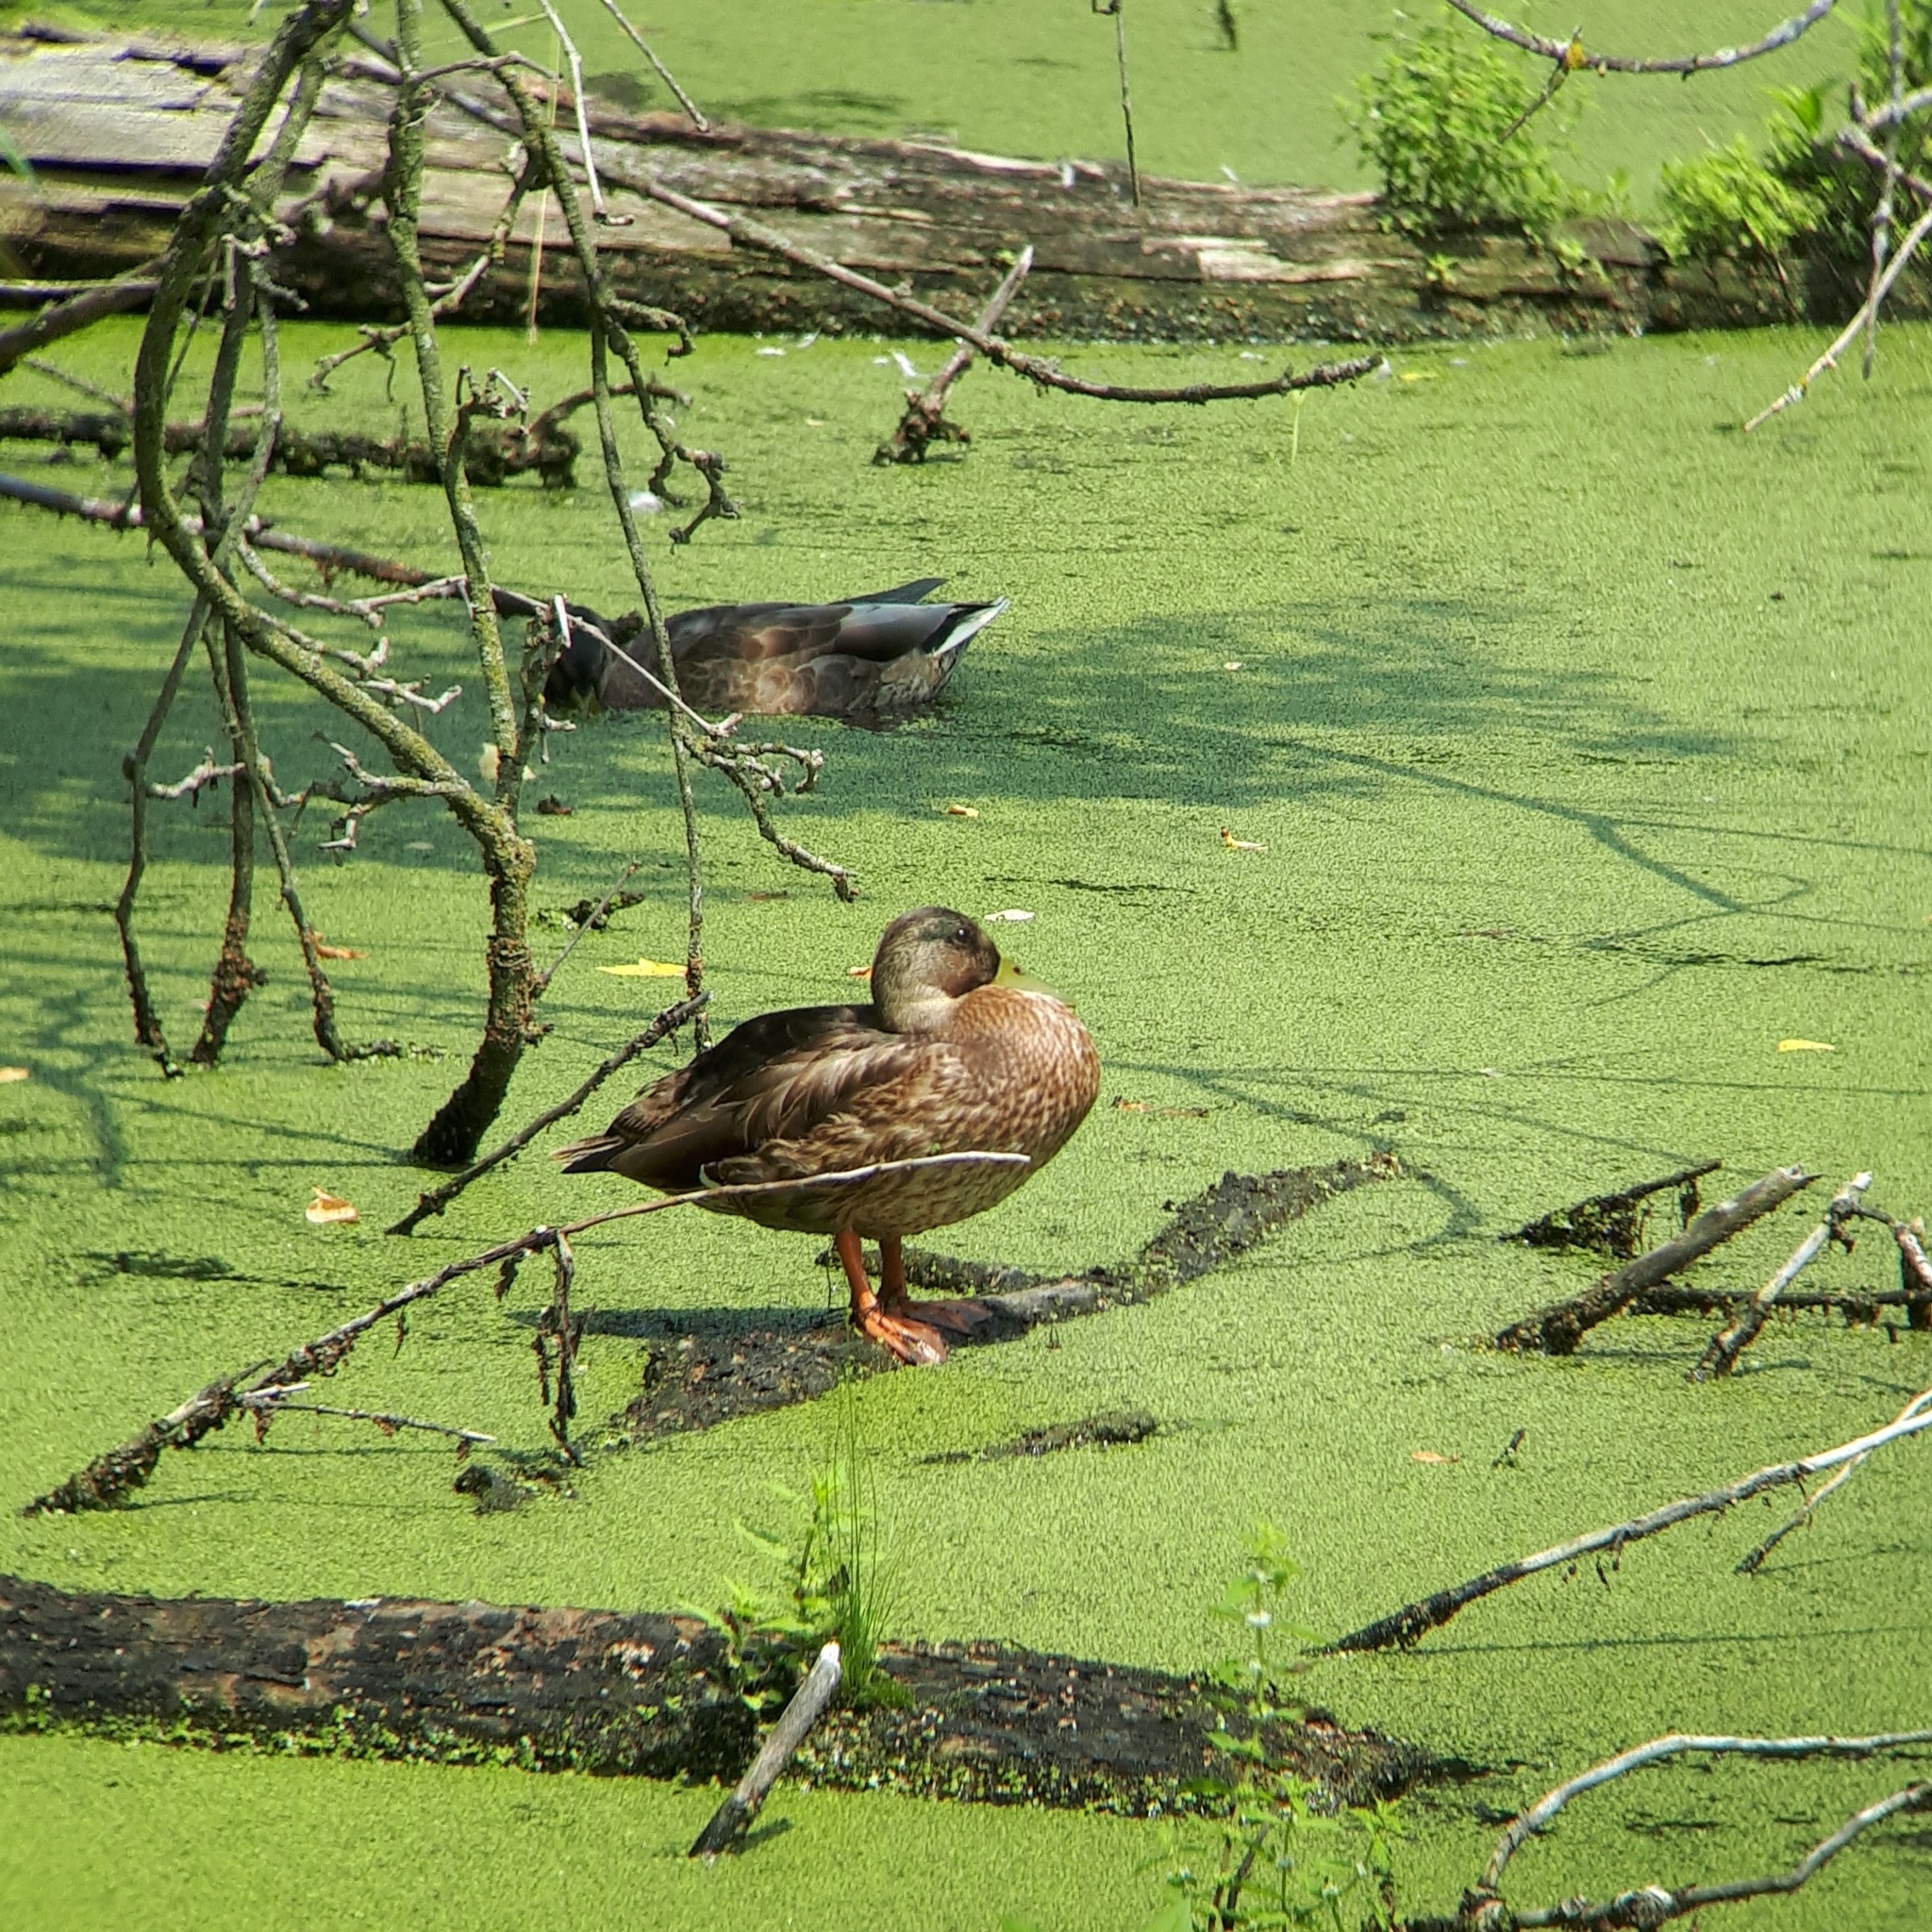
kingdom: Animalia
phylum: Chordata
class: Aves
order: Anseriformes
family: Anatidae
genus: Anas
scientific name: Anas platyrhynchos
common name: Mallard
